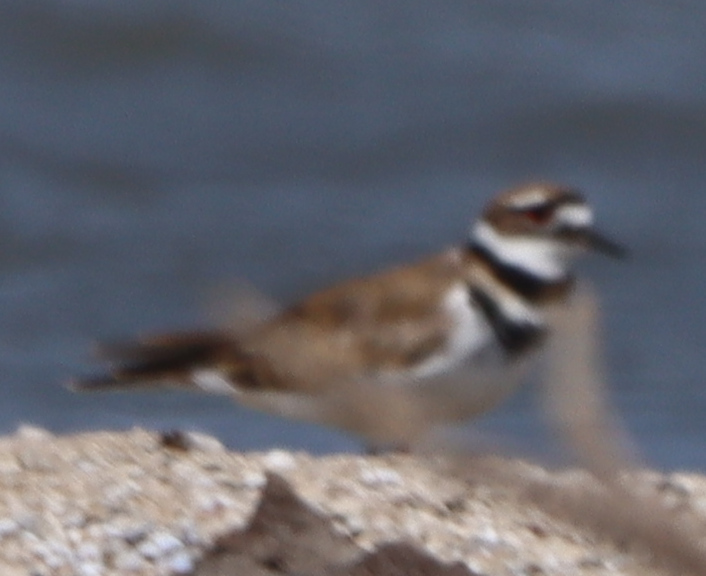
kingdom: Animalia
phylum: Chordata
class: Aves
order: Charadriiformes
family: Charadriidae
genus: Charadrius
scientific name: Charadrius vociferus
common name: Killdeer
